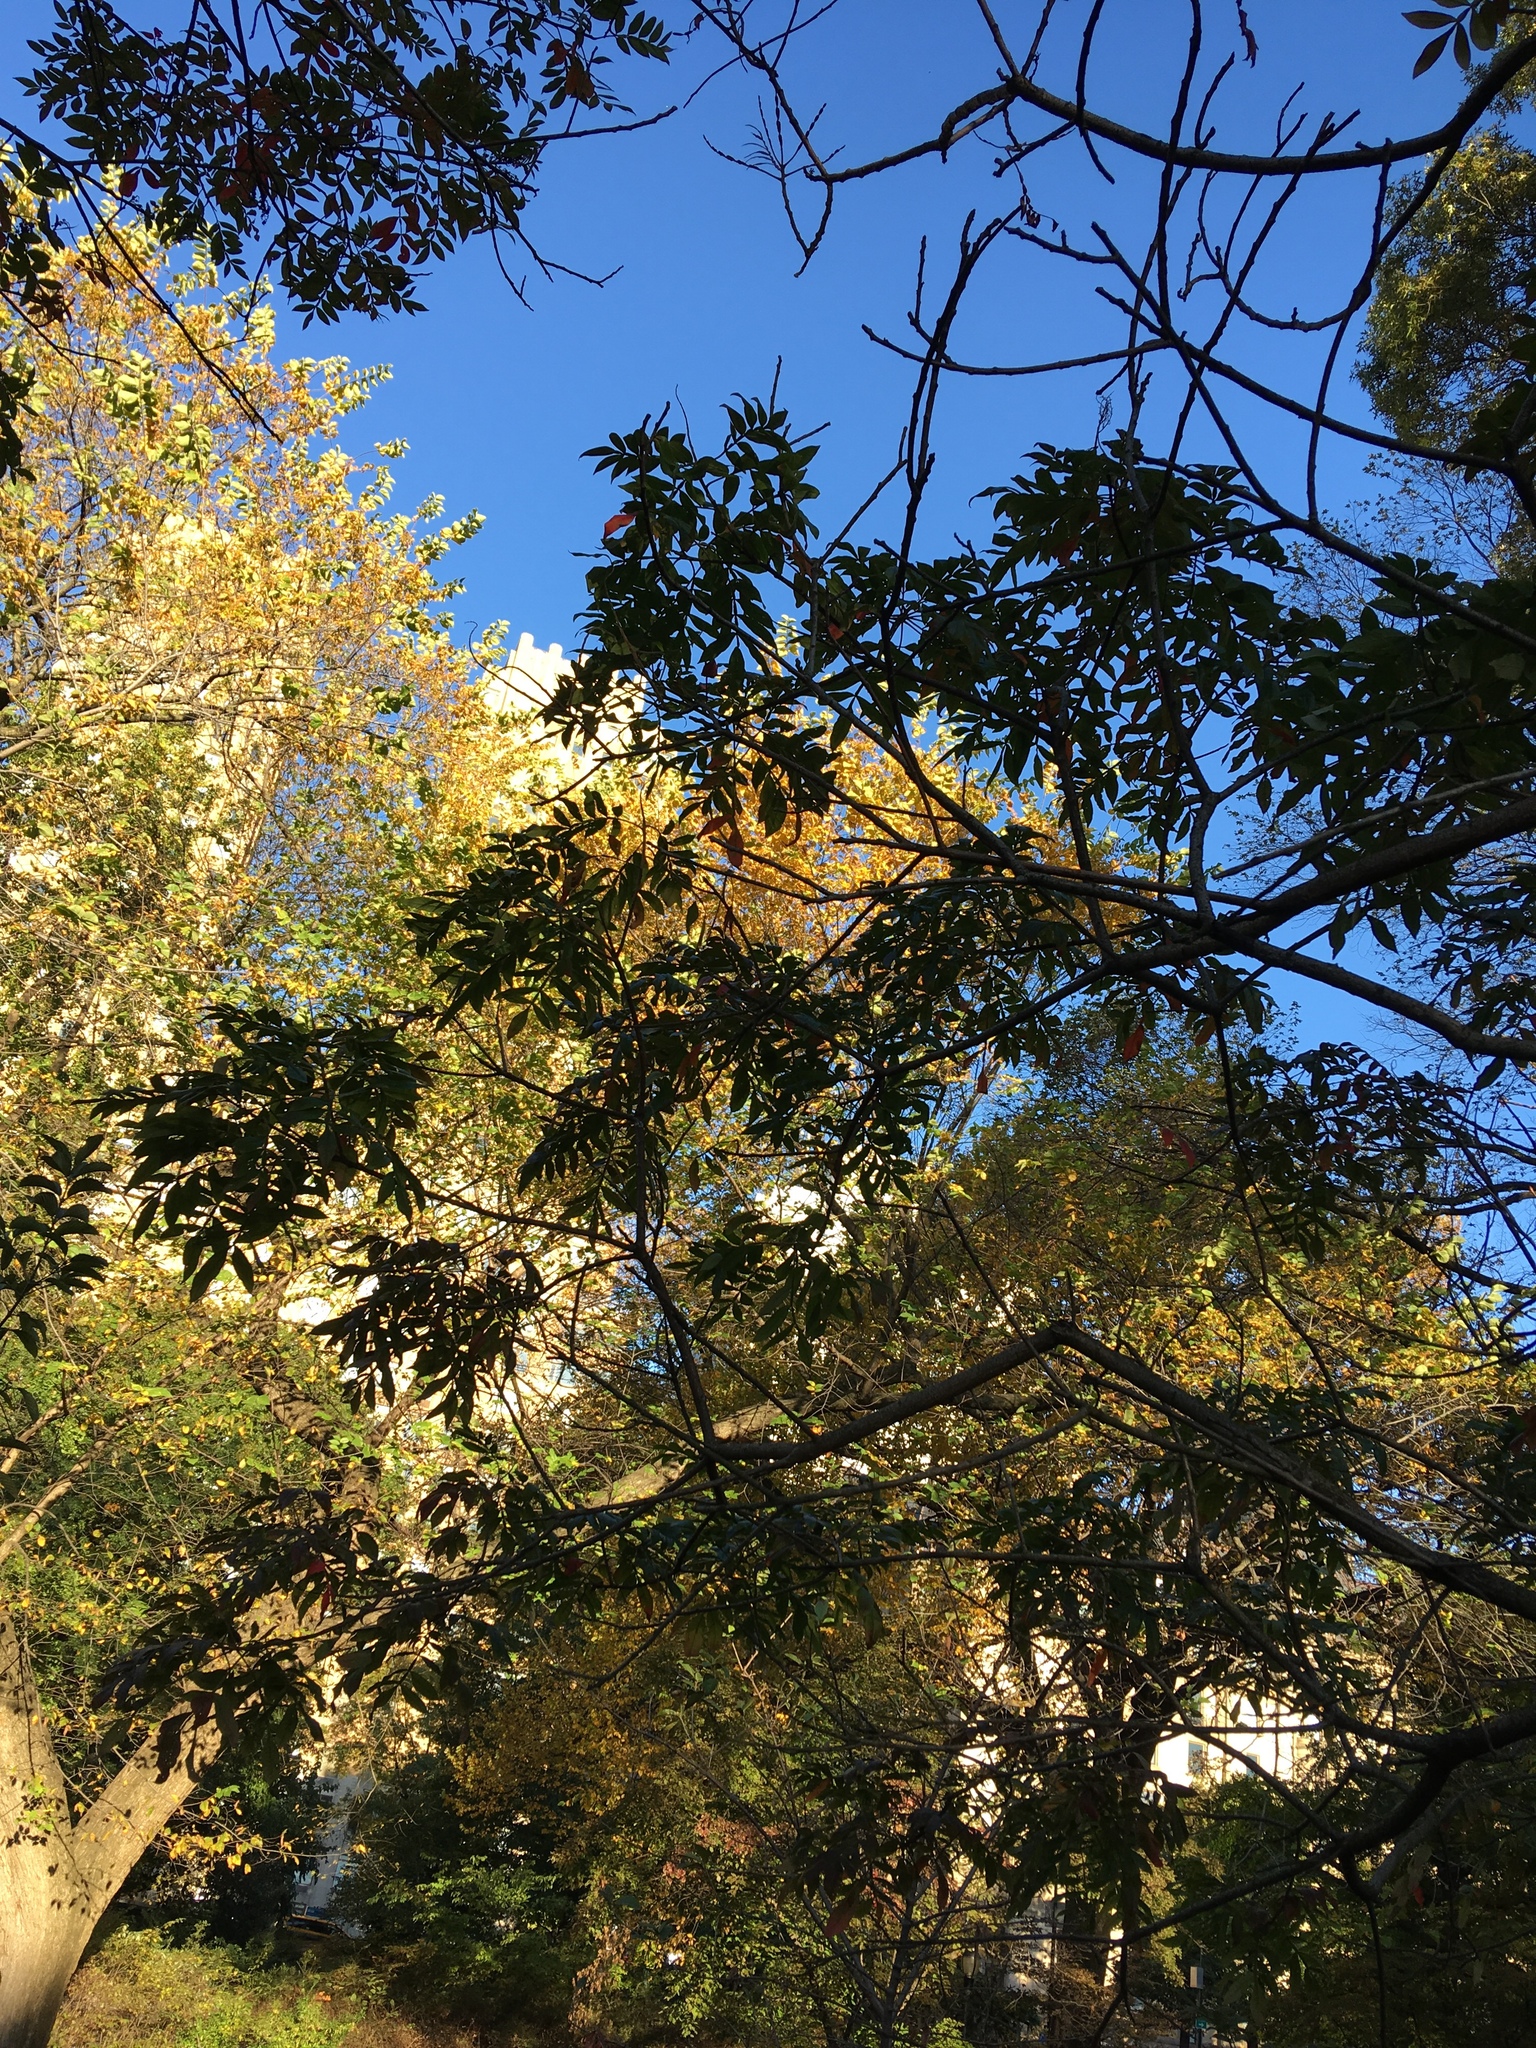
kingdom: Plantae
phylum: Tracheophyta
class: Magnoliopsida
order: Sapindales
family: Anacardiaceae
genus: Rhus
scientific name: Rhus copallina
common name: Shining sumac
